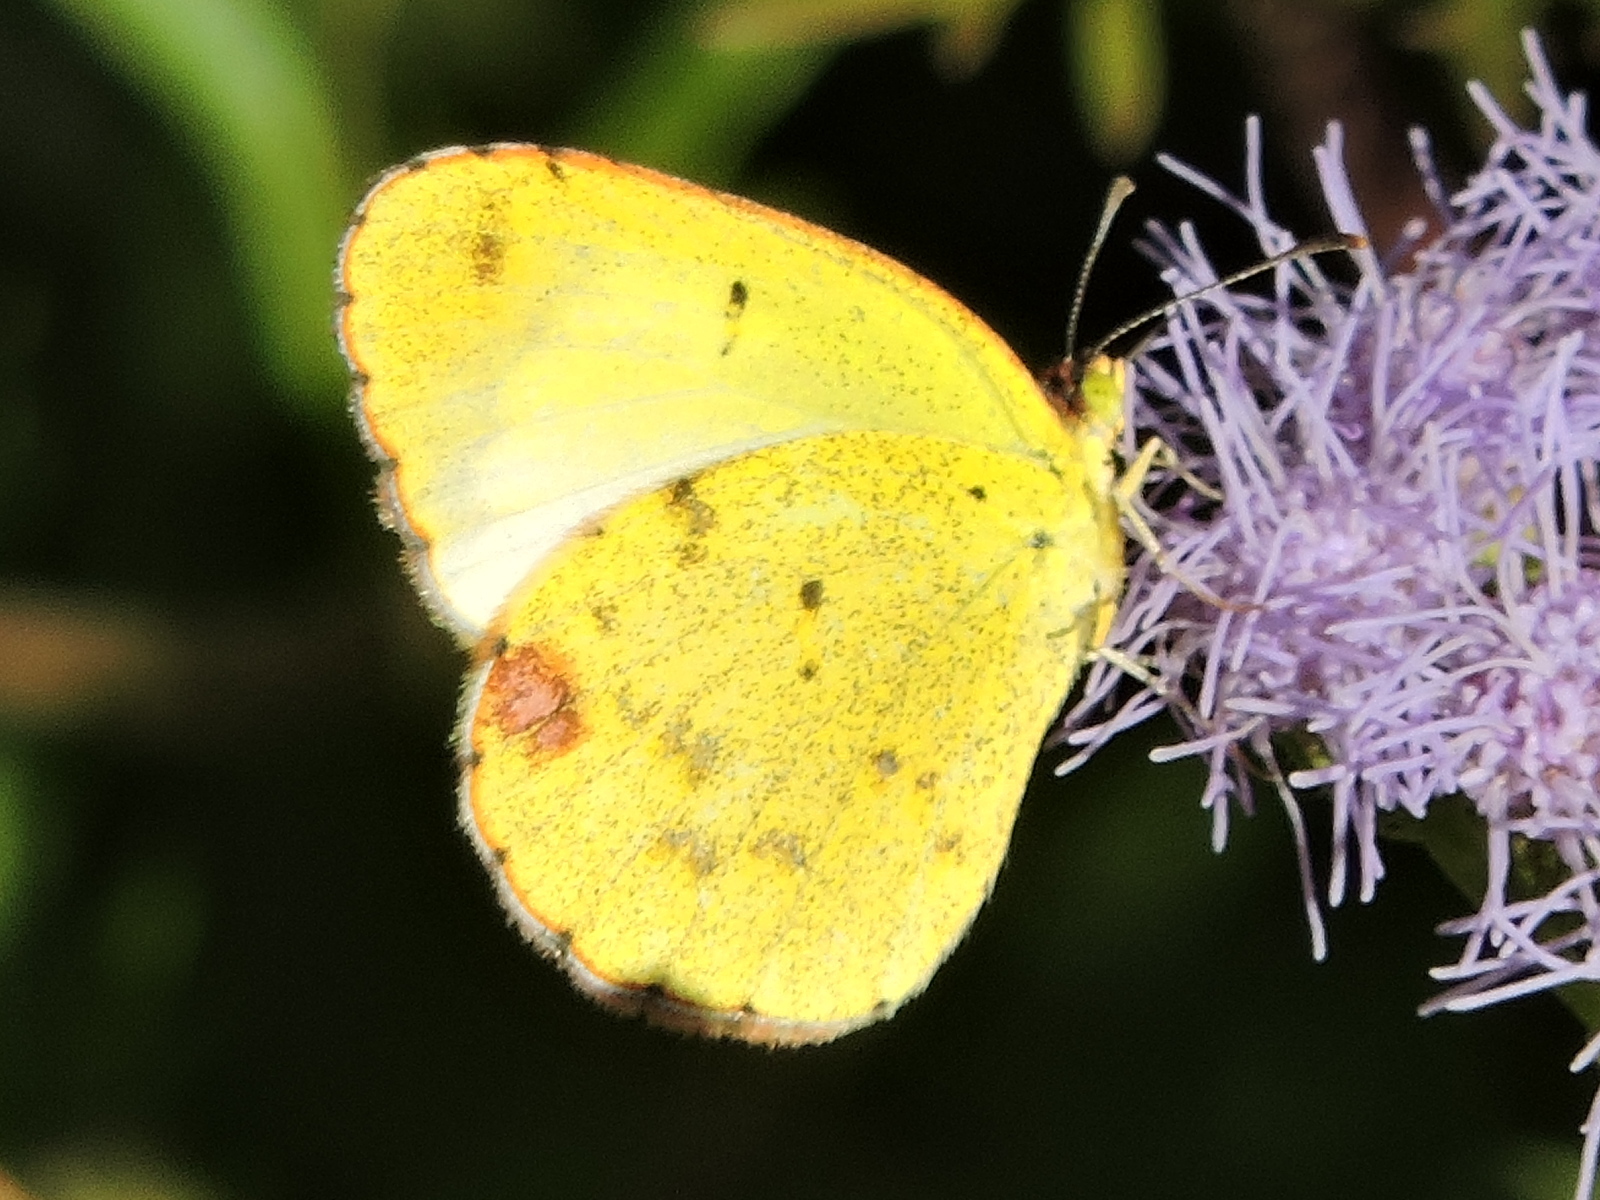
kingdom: Animalia
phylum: Arthropoda
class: Insecta
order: Lepidoptera
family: Pieridae
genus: Pyrisitia
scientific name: Pyrisitia lisa
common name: Little yellow
